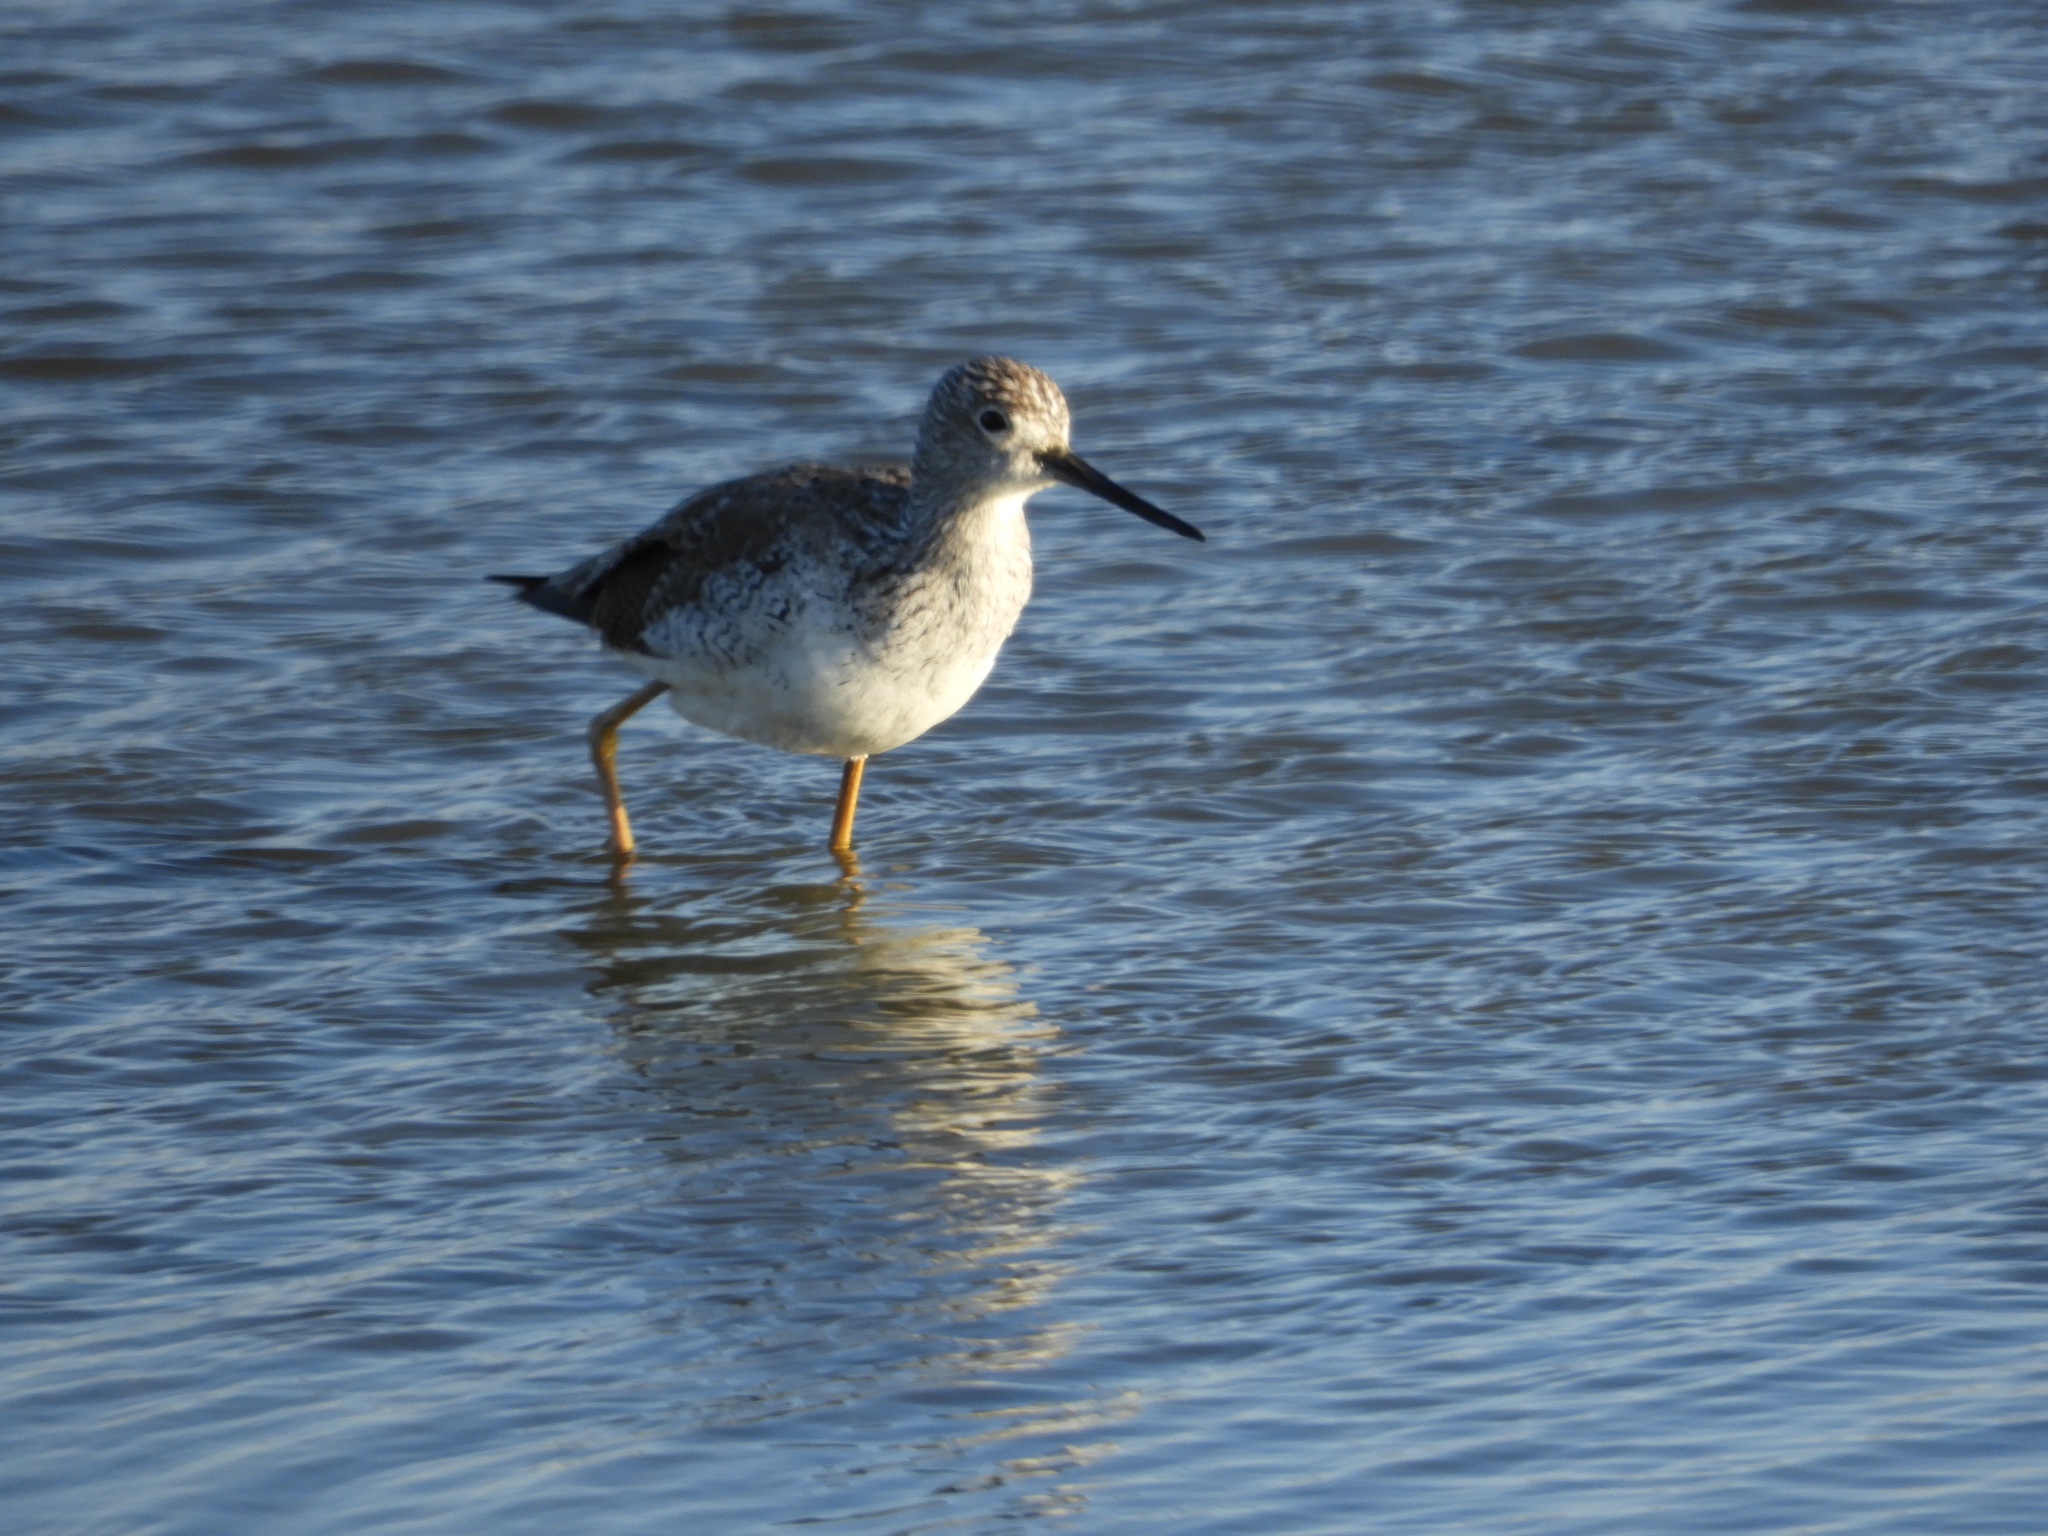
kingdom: Animalia
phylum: Chordata
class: Aves
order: Charadriiformes
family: Scolopacidae
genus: Tringa
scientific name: Tringa melanoleuca
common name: Greater yellowlegs
